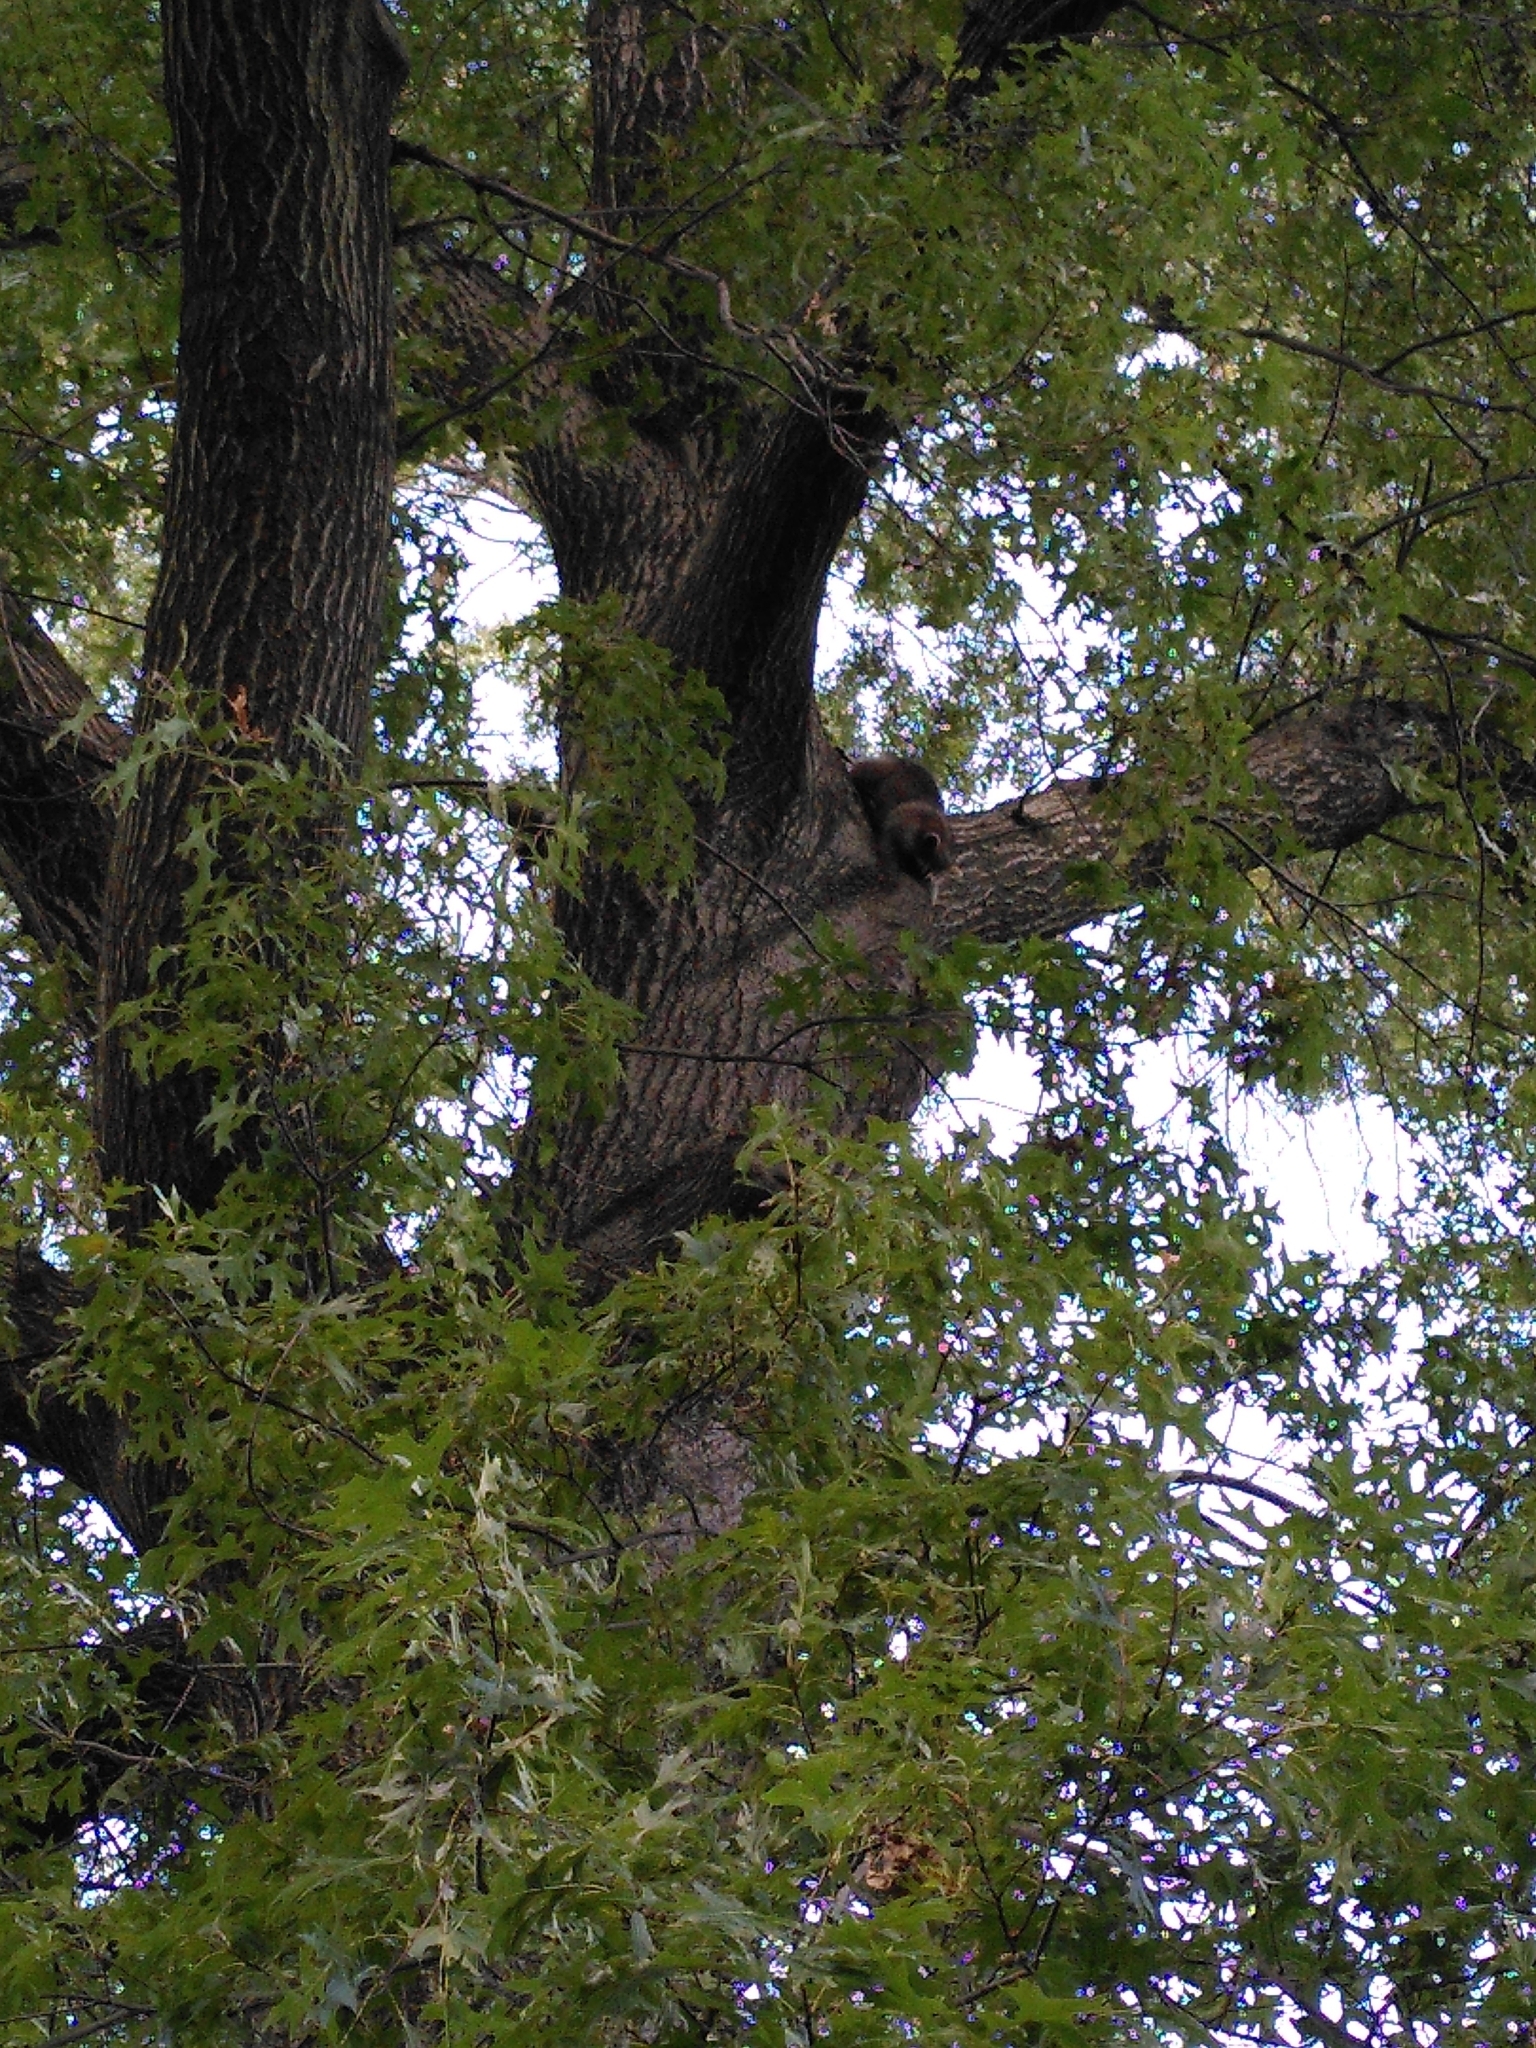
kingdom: Animalia
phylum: Chordata
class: Mammalia
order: Carnivora
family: Procyonidae
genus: Procyon
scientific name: Procyon lotor
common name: Raccoon
